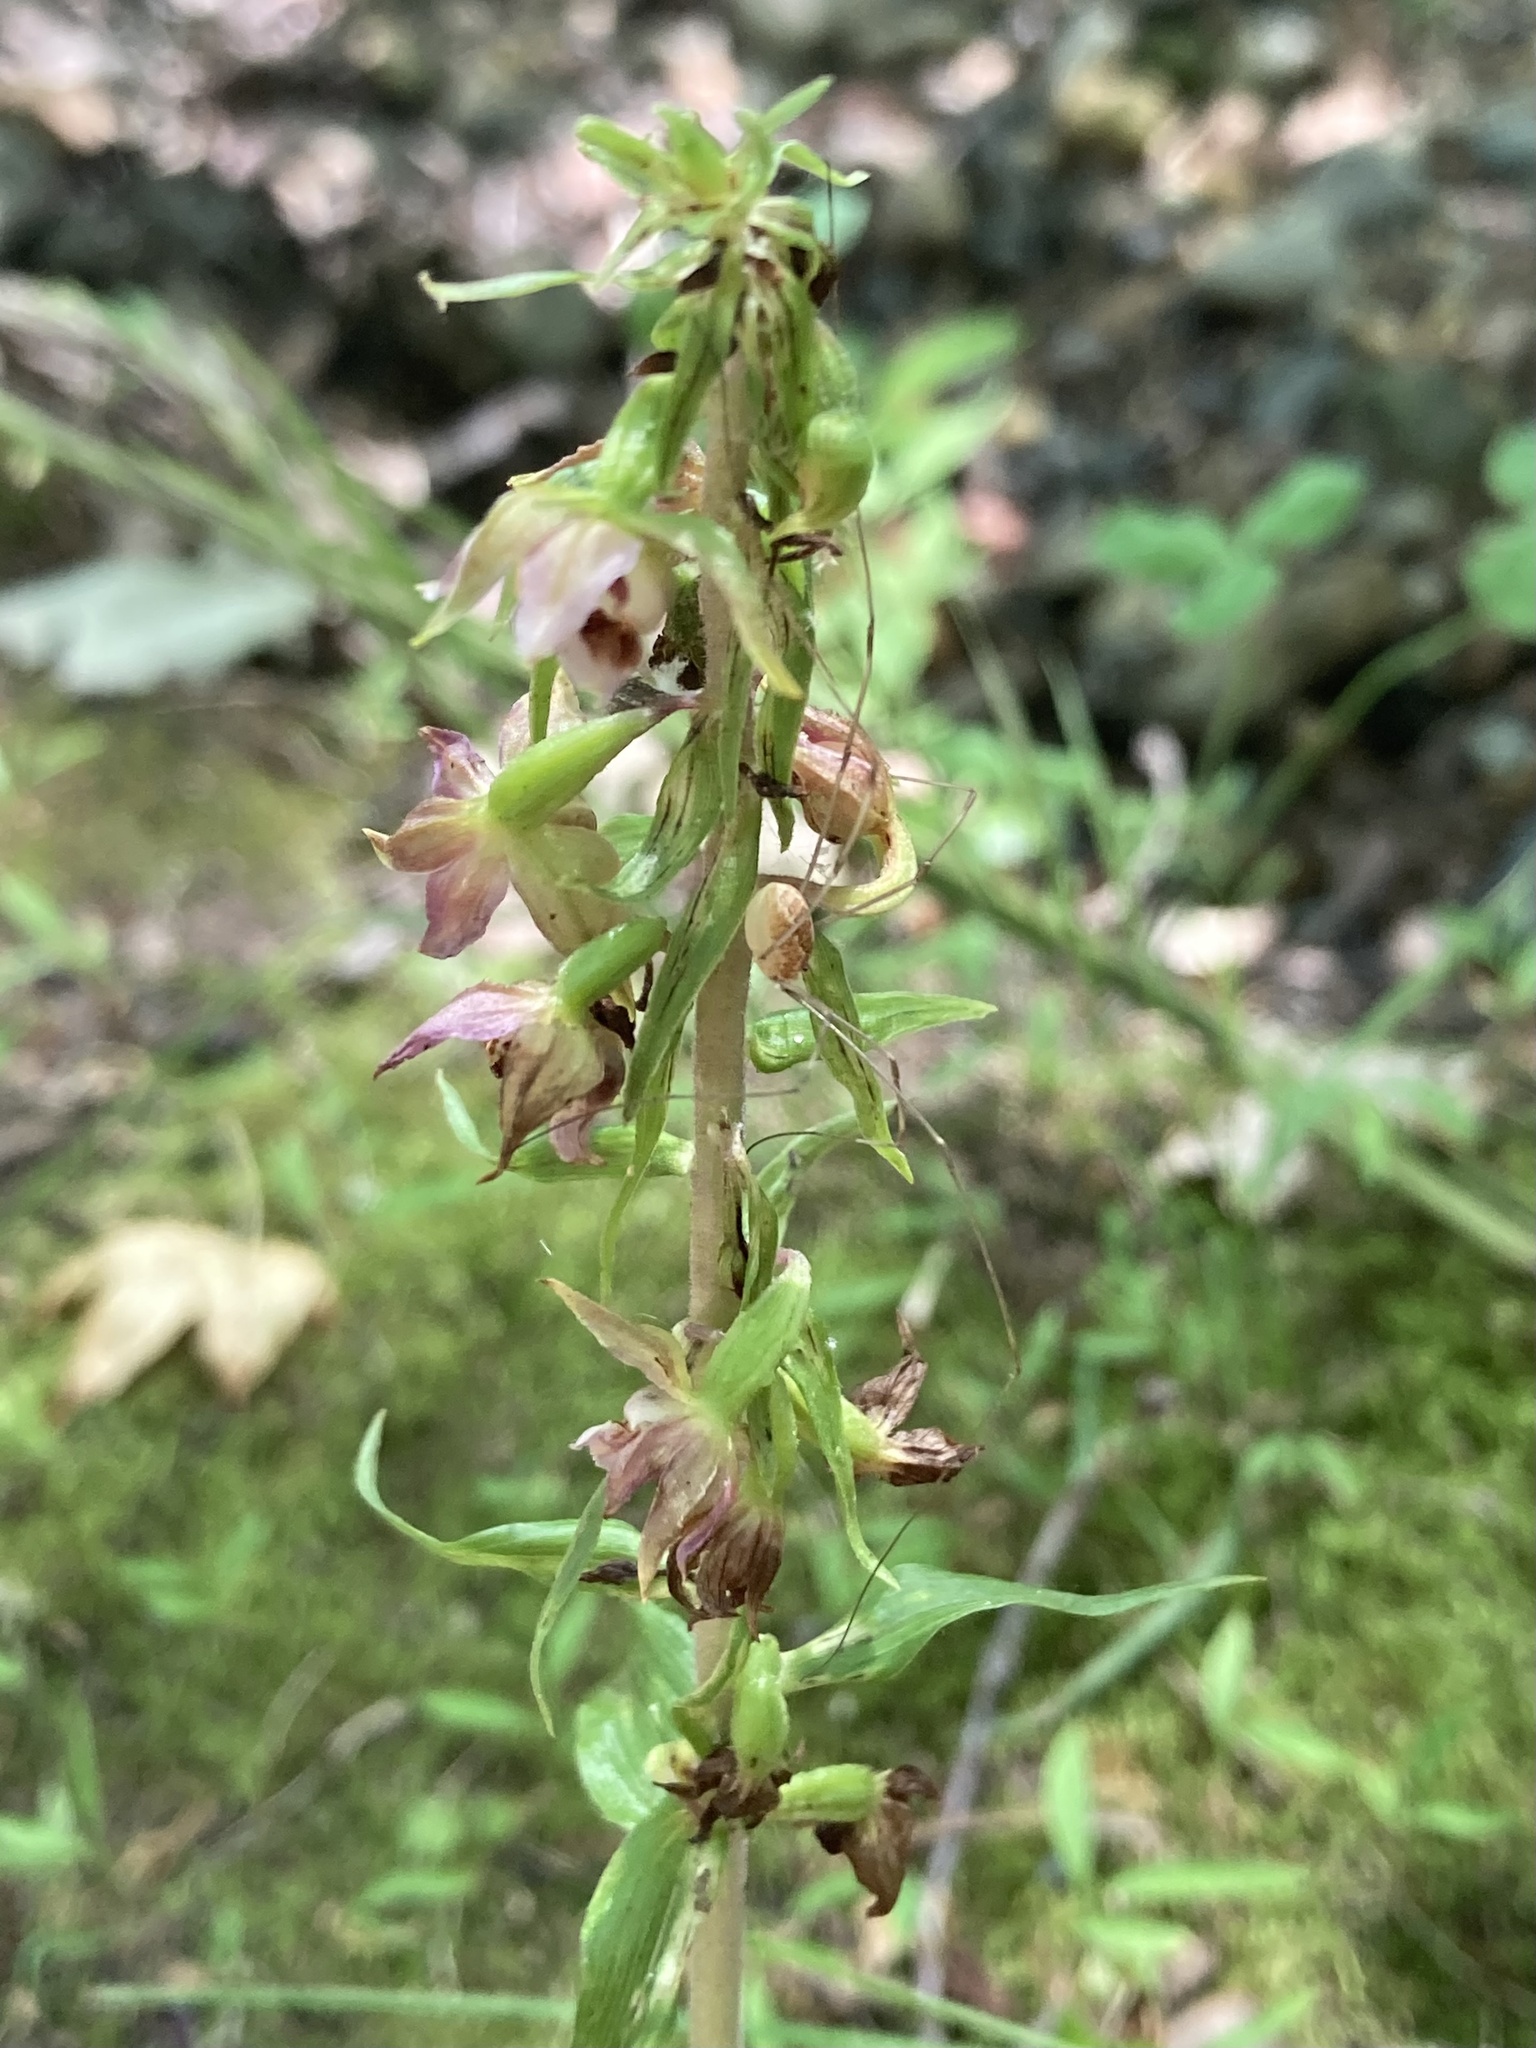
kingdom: Plantae
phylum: Tracheophyta
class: Liliopsida
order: Asparagales
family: Orchidaceae
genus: Epipactis
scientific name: Epipactis helleborine
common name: Broad-leaved helleborine
